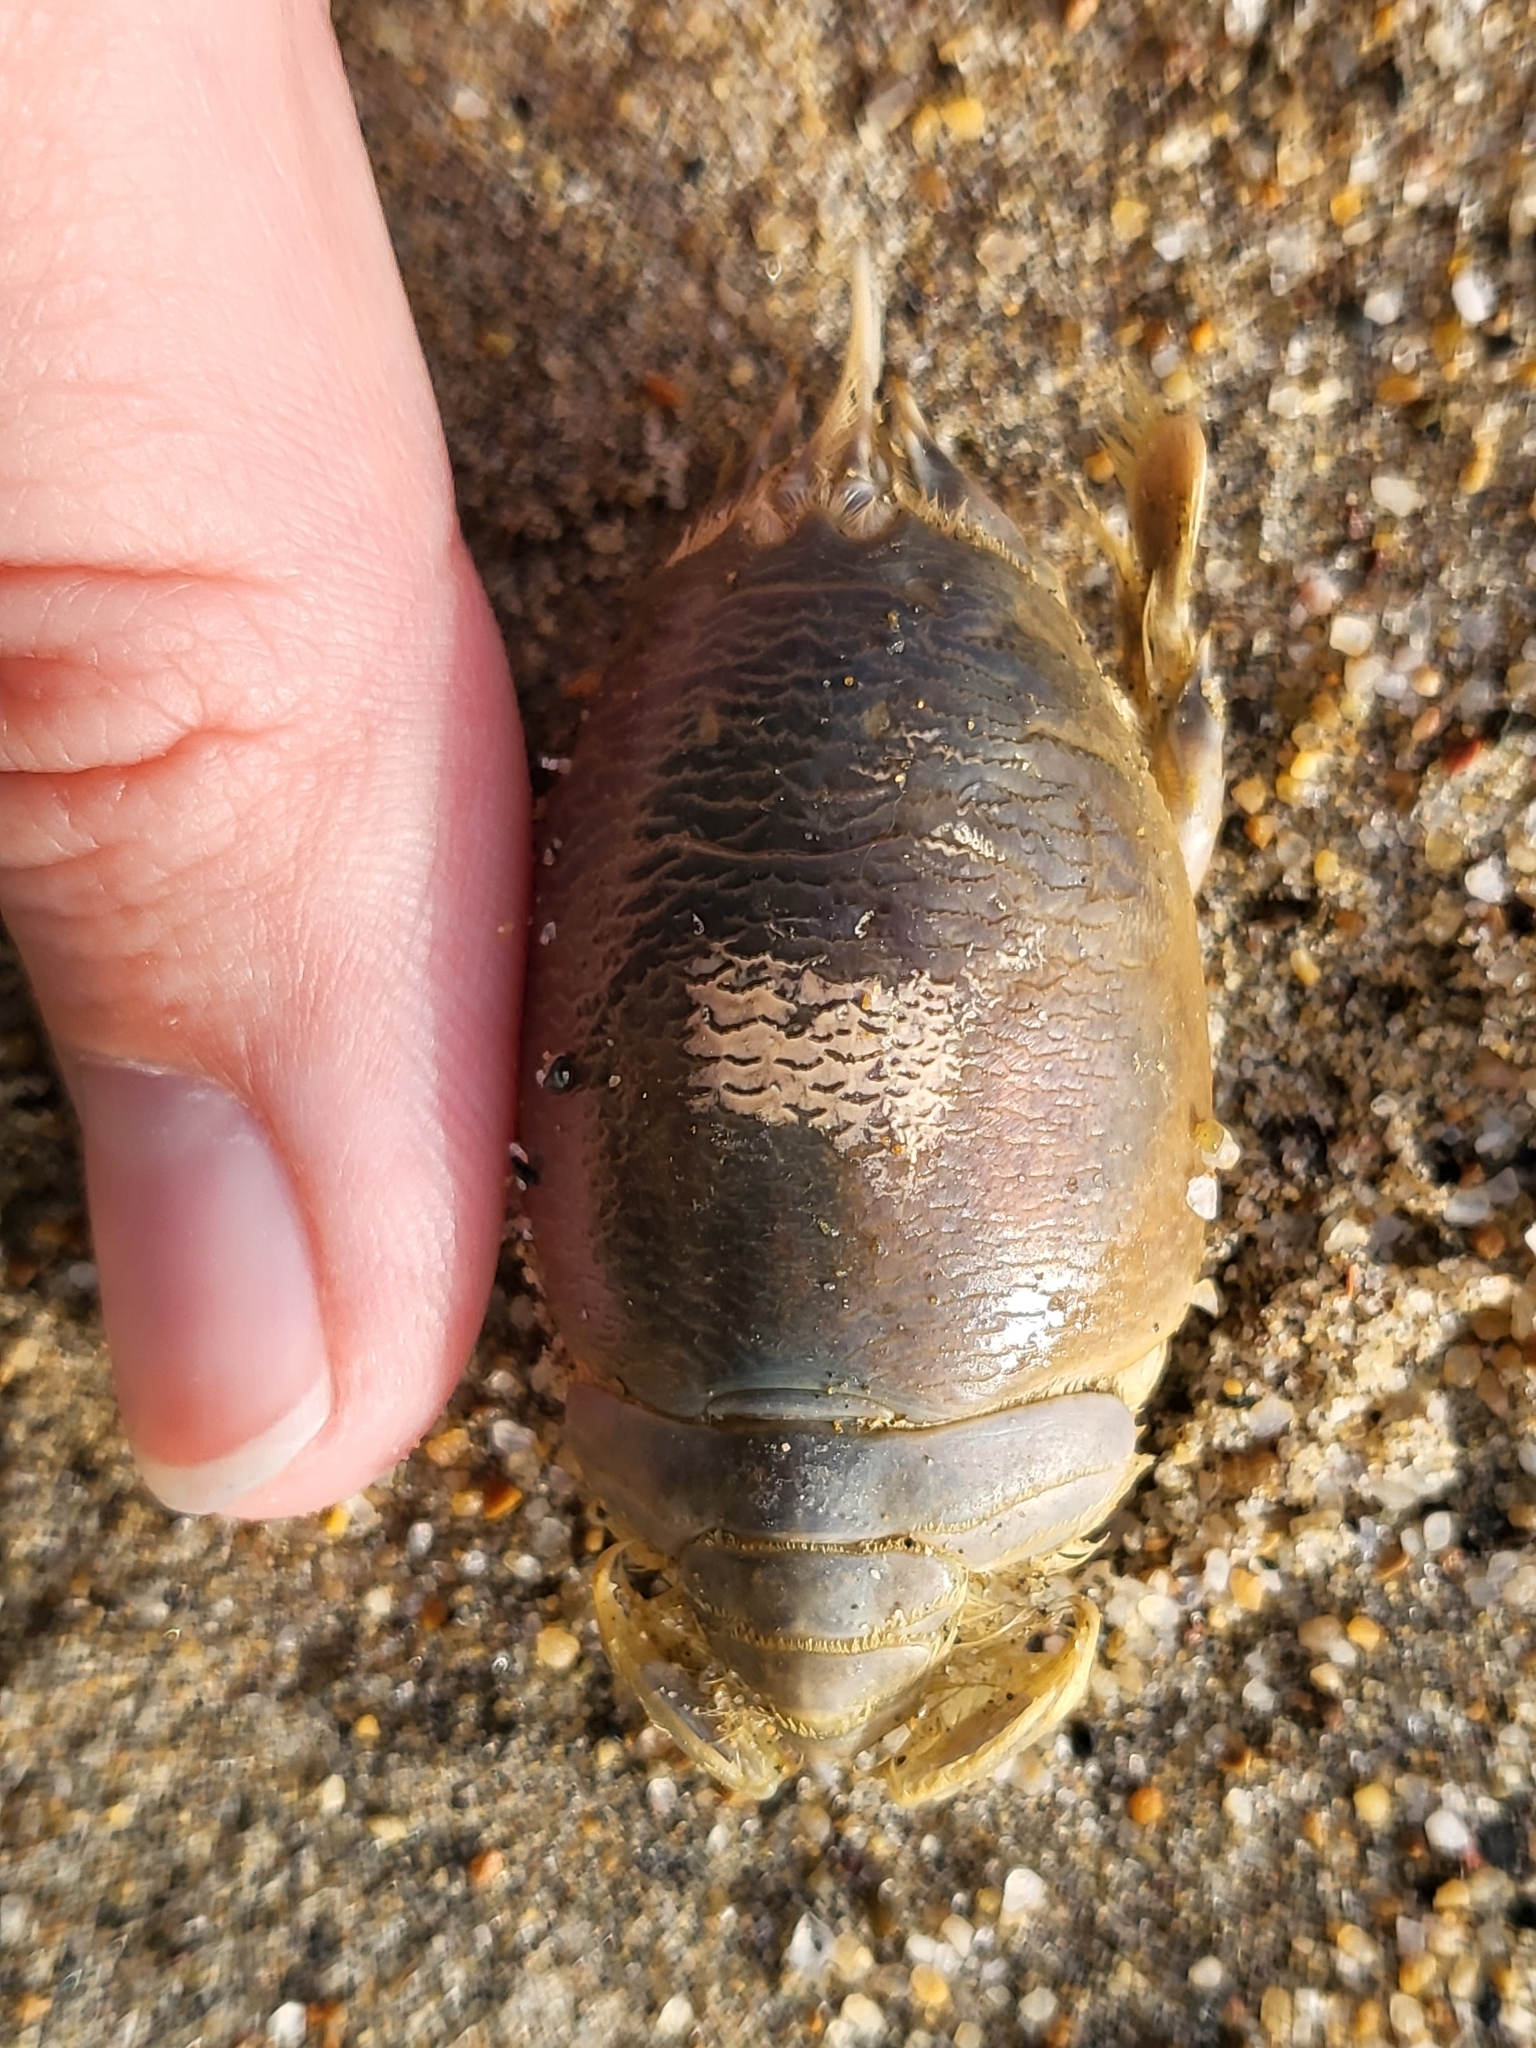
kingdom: Animalia
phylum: Arthropoda
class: Malacostraca
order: Decapoda
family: Hippidae
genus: Emerita
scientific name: Emerita analoga
